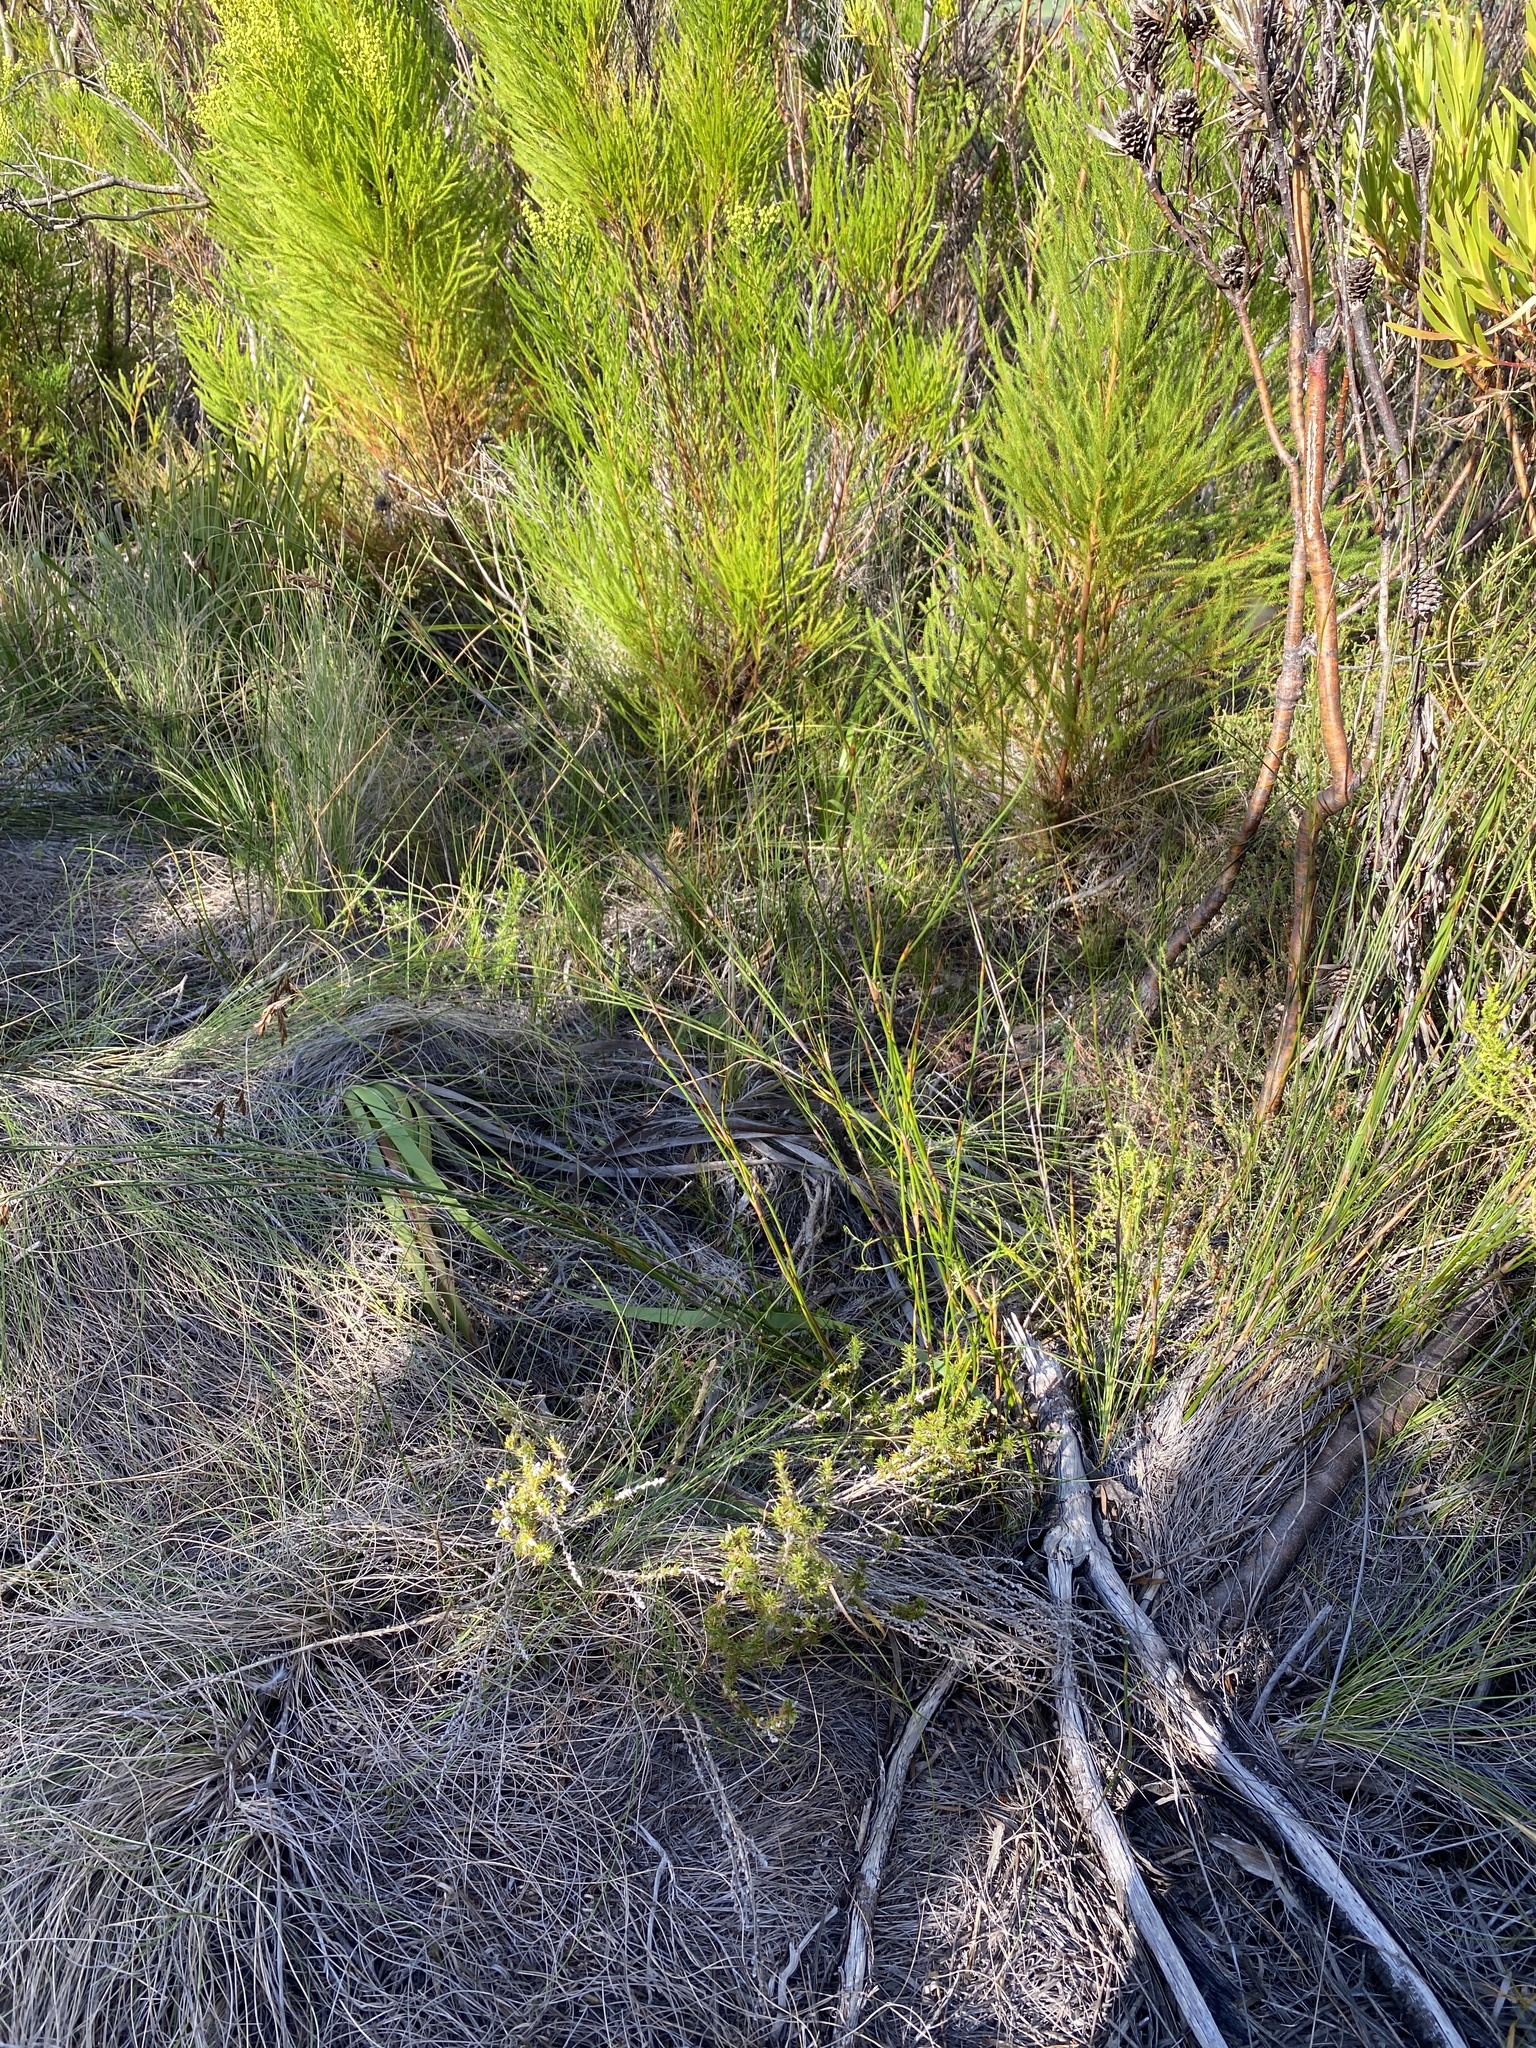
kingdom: Plantae
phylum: Tracheophyta
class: Liliopsida
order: Poales
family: Restionaceae
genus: Thamnochortus
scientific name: Thamnochortus lucens
